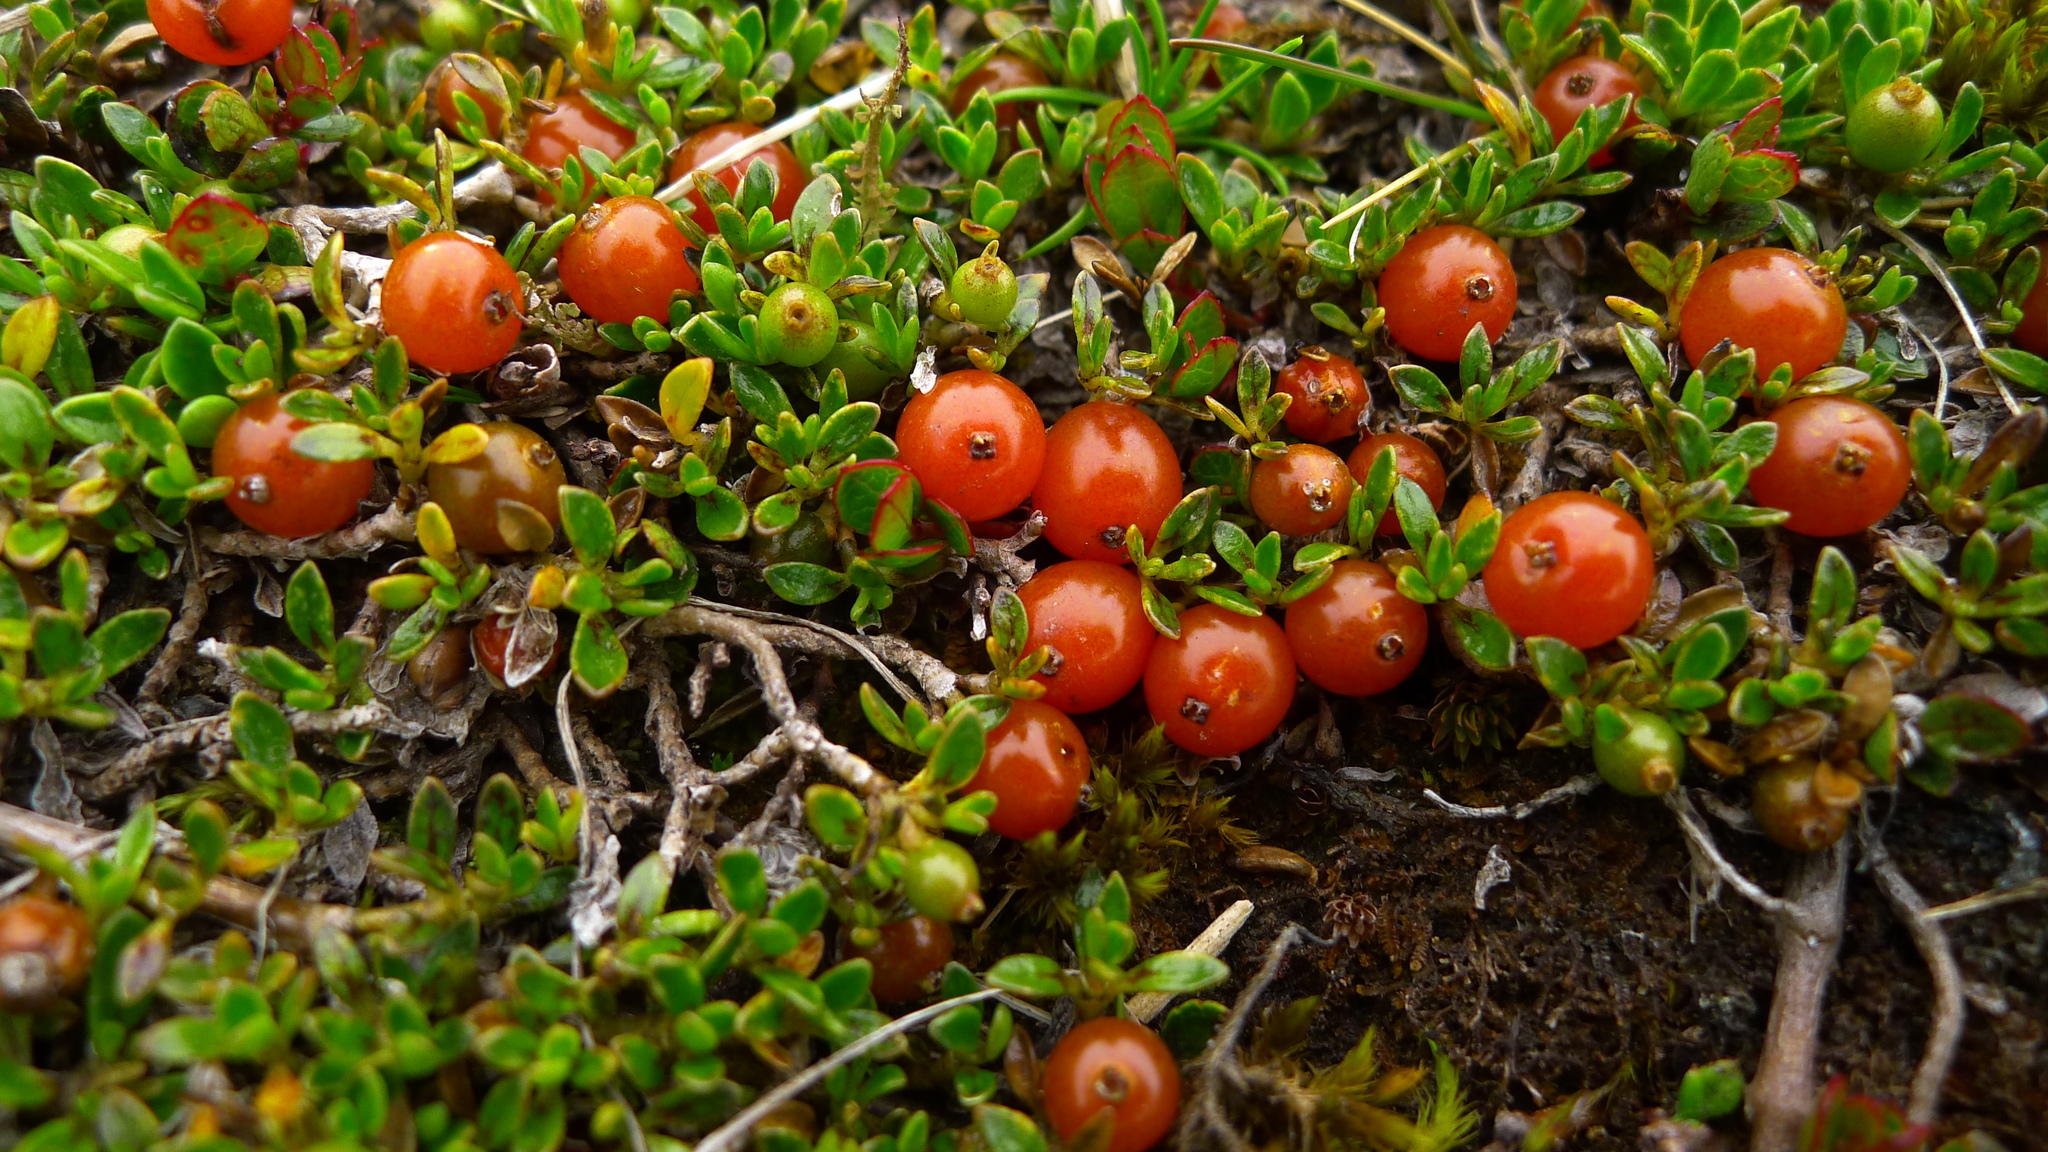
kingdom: Plantae
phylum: Tracheophyta
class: Magnoliopsida
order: Gentianales
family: Rubiaceae
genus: Coprosma
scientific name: Coprosma perpusilla
